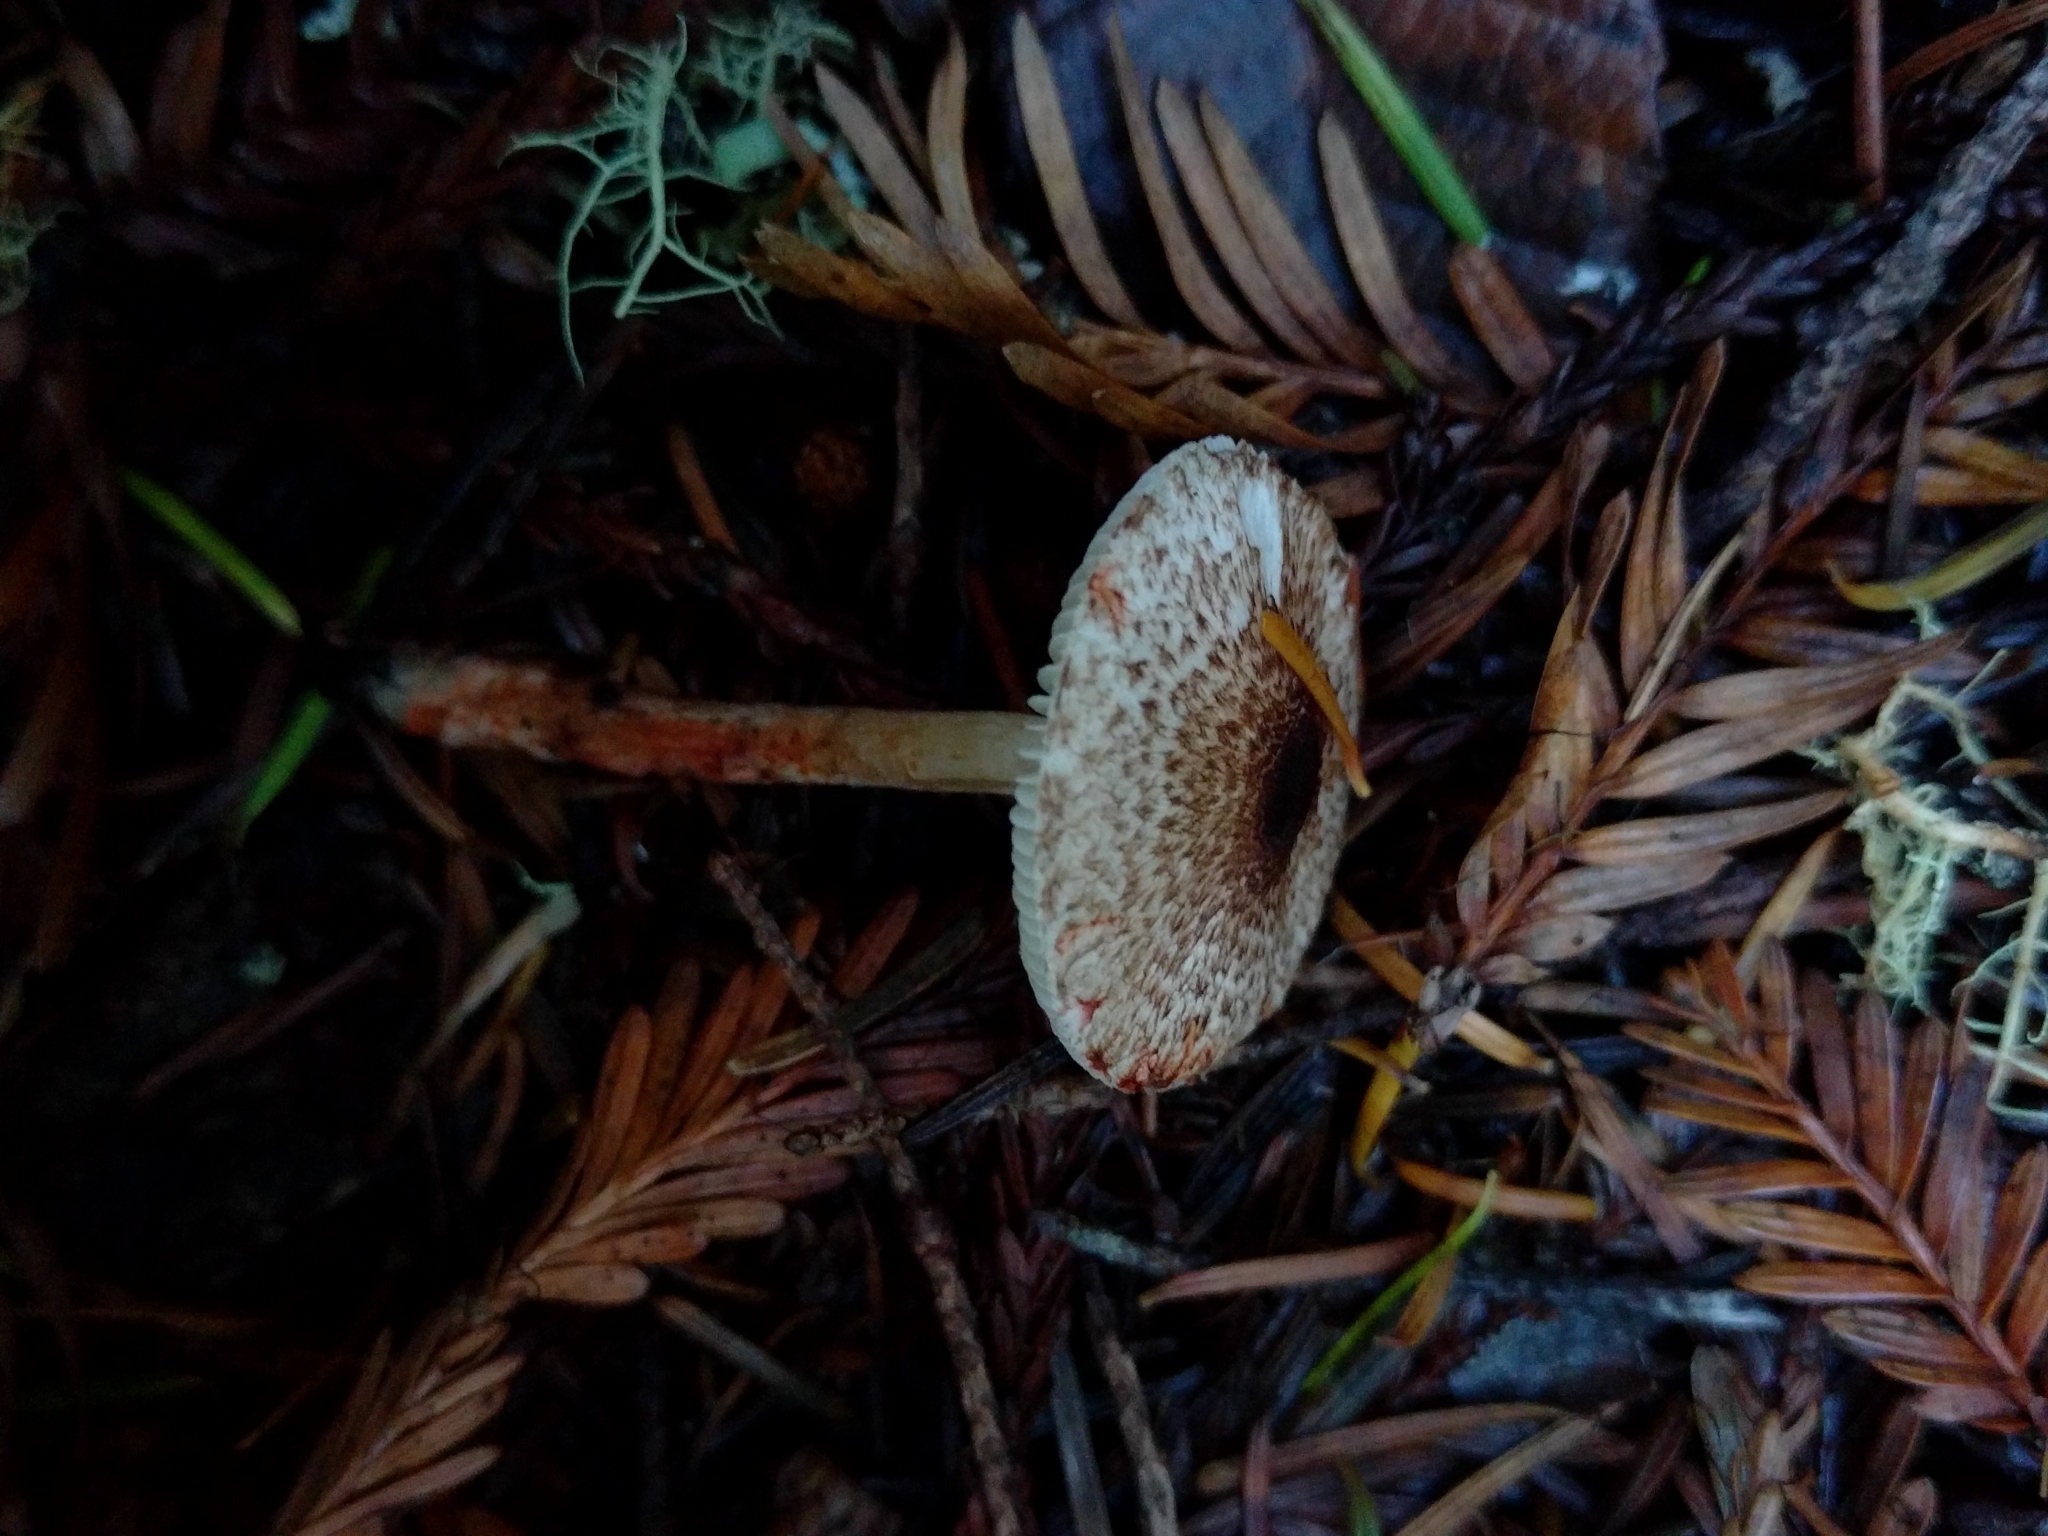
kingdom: Fungi
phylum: Basidiomycota
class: Agaricomycetes
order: Agaricales
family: Agaricaceae
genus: Lepiota
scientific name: Lepiota flammeotincta
